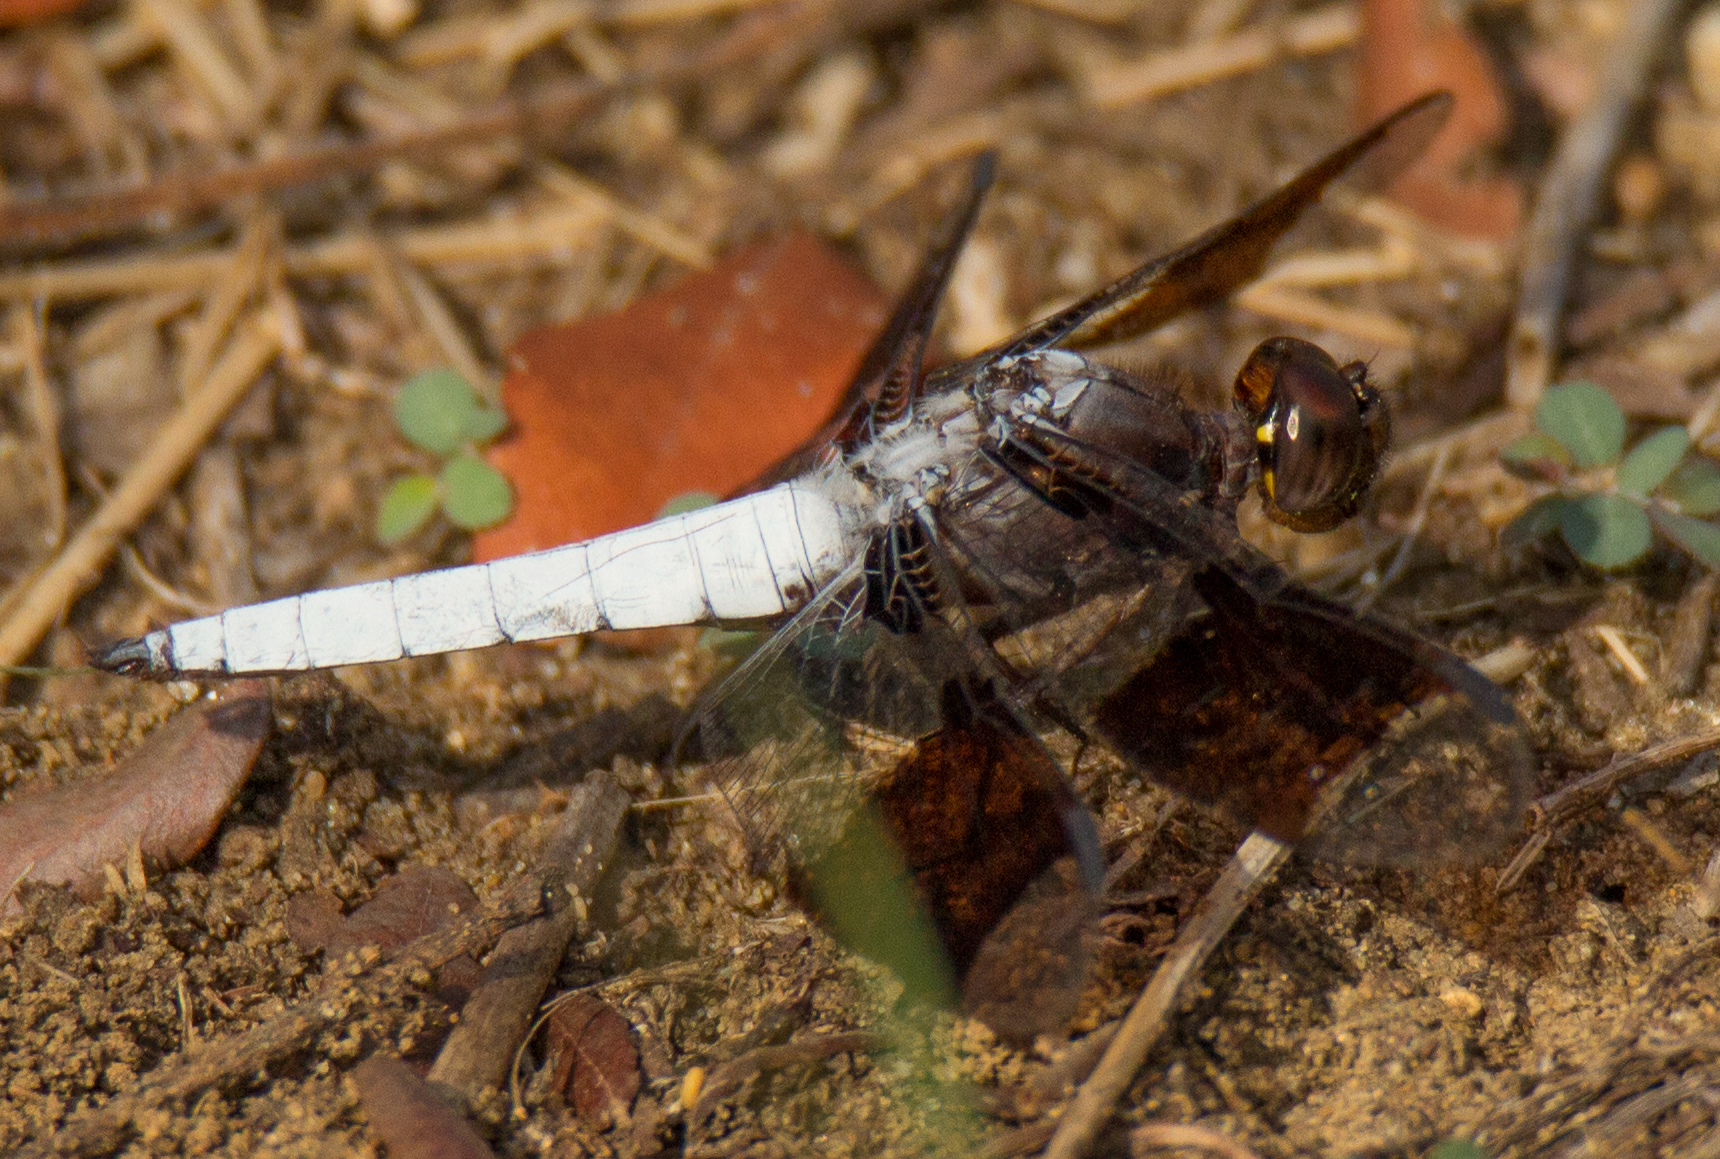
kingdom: Animalia
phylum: Arthropoda
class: Insecta
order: Odonata
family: Libellulidae
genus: Plathemis
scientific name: Plathemis lydia
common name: Common whitetail
